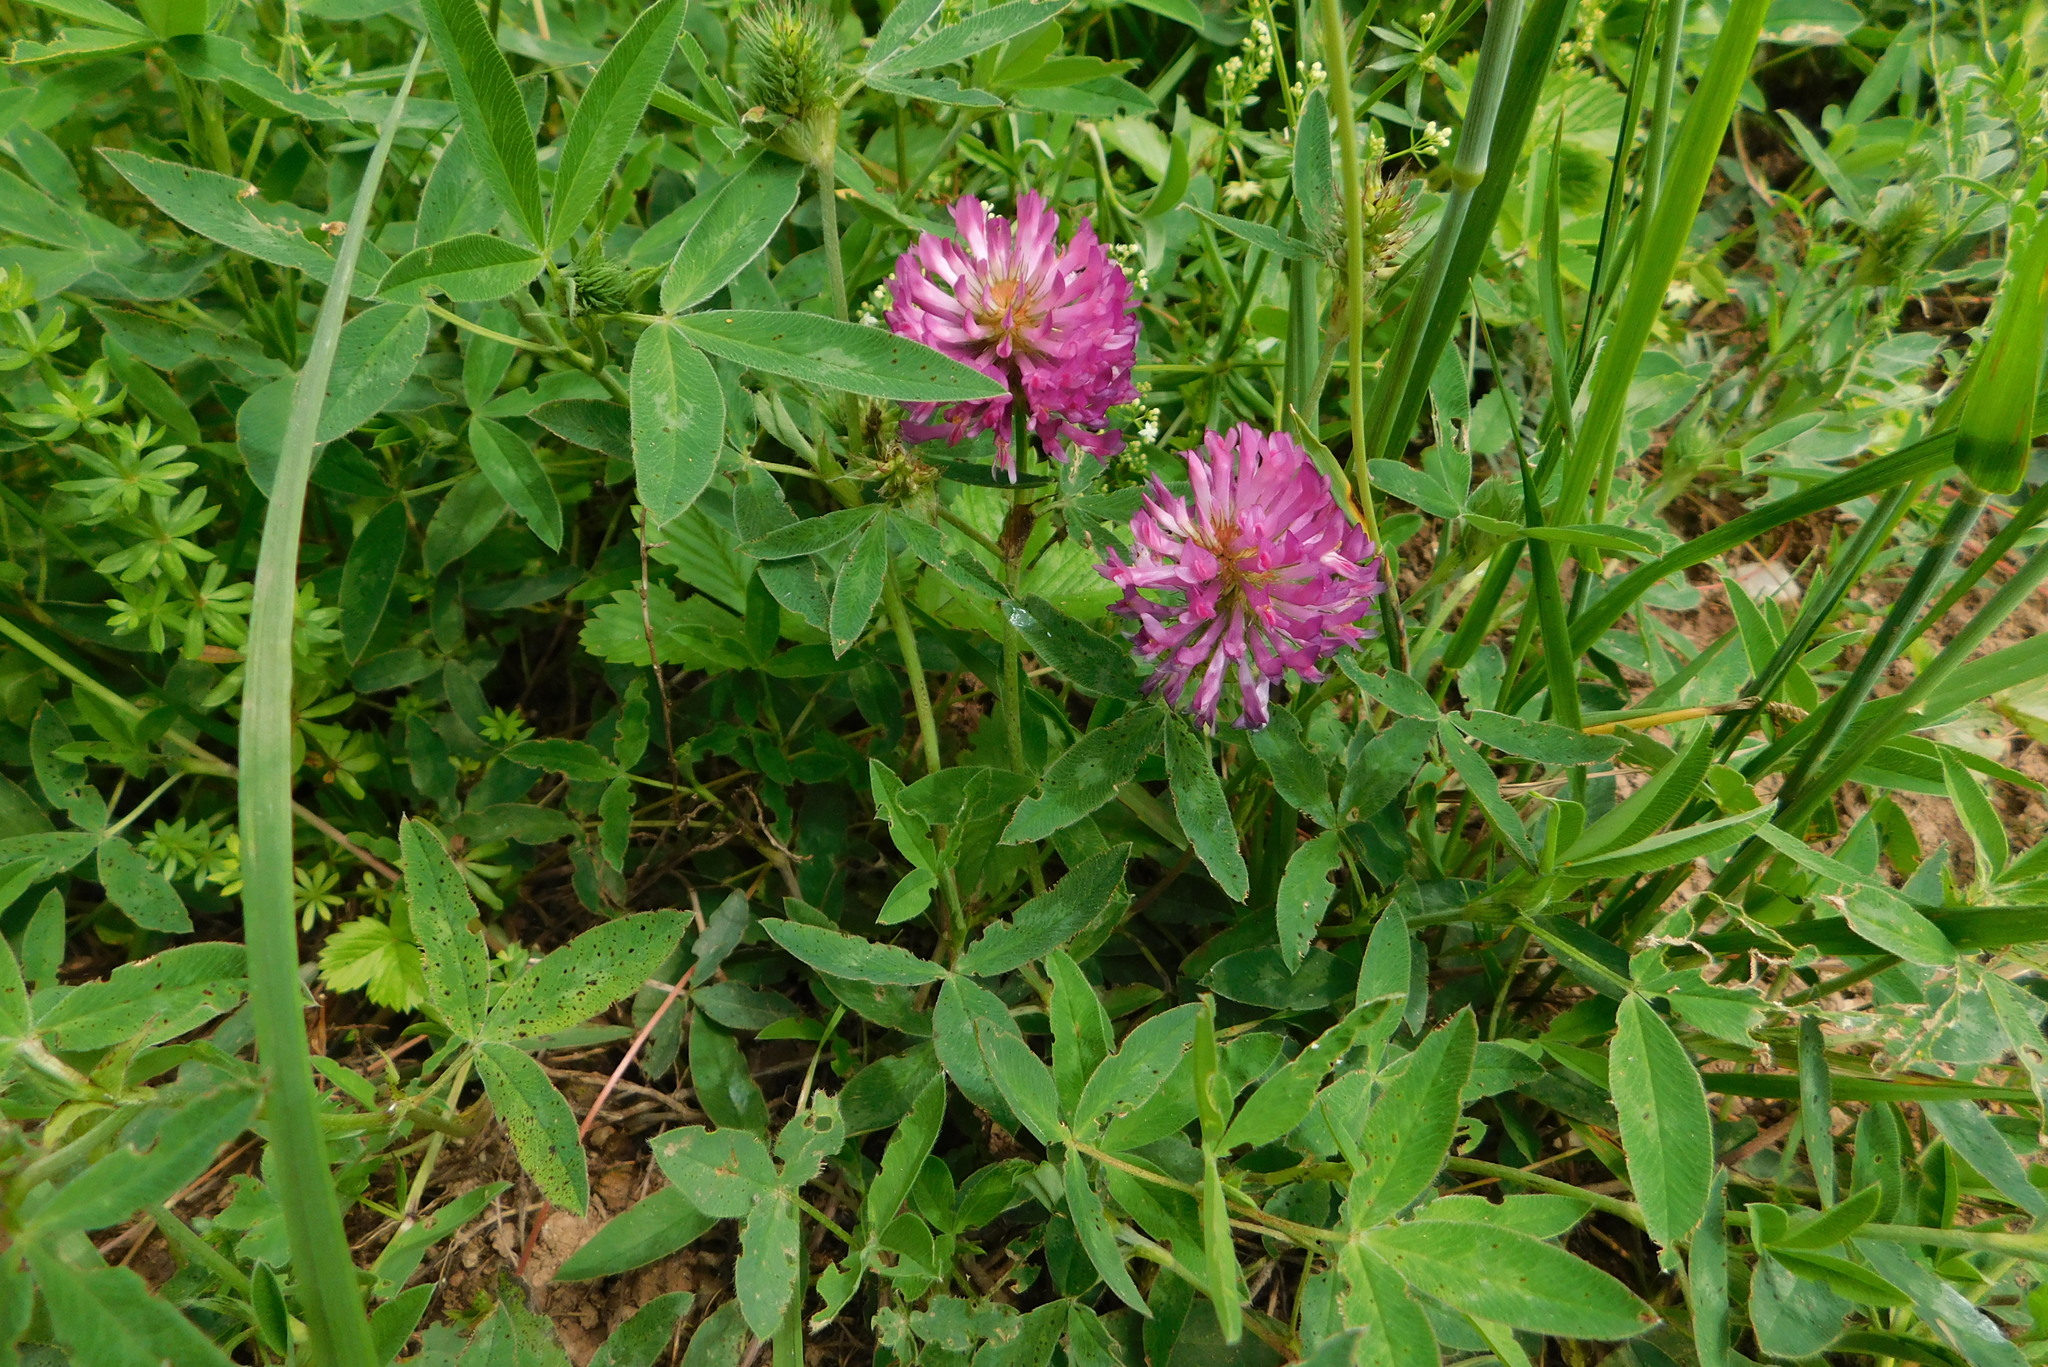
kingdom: Plantae
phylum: Tracheophyta
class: Magnoliopsida
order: Fabales
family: Fabaceae
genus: Trifolium
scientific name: Trifolium medium
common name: Zigzag clover
